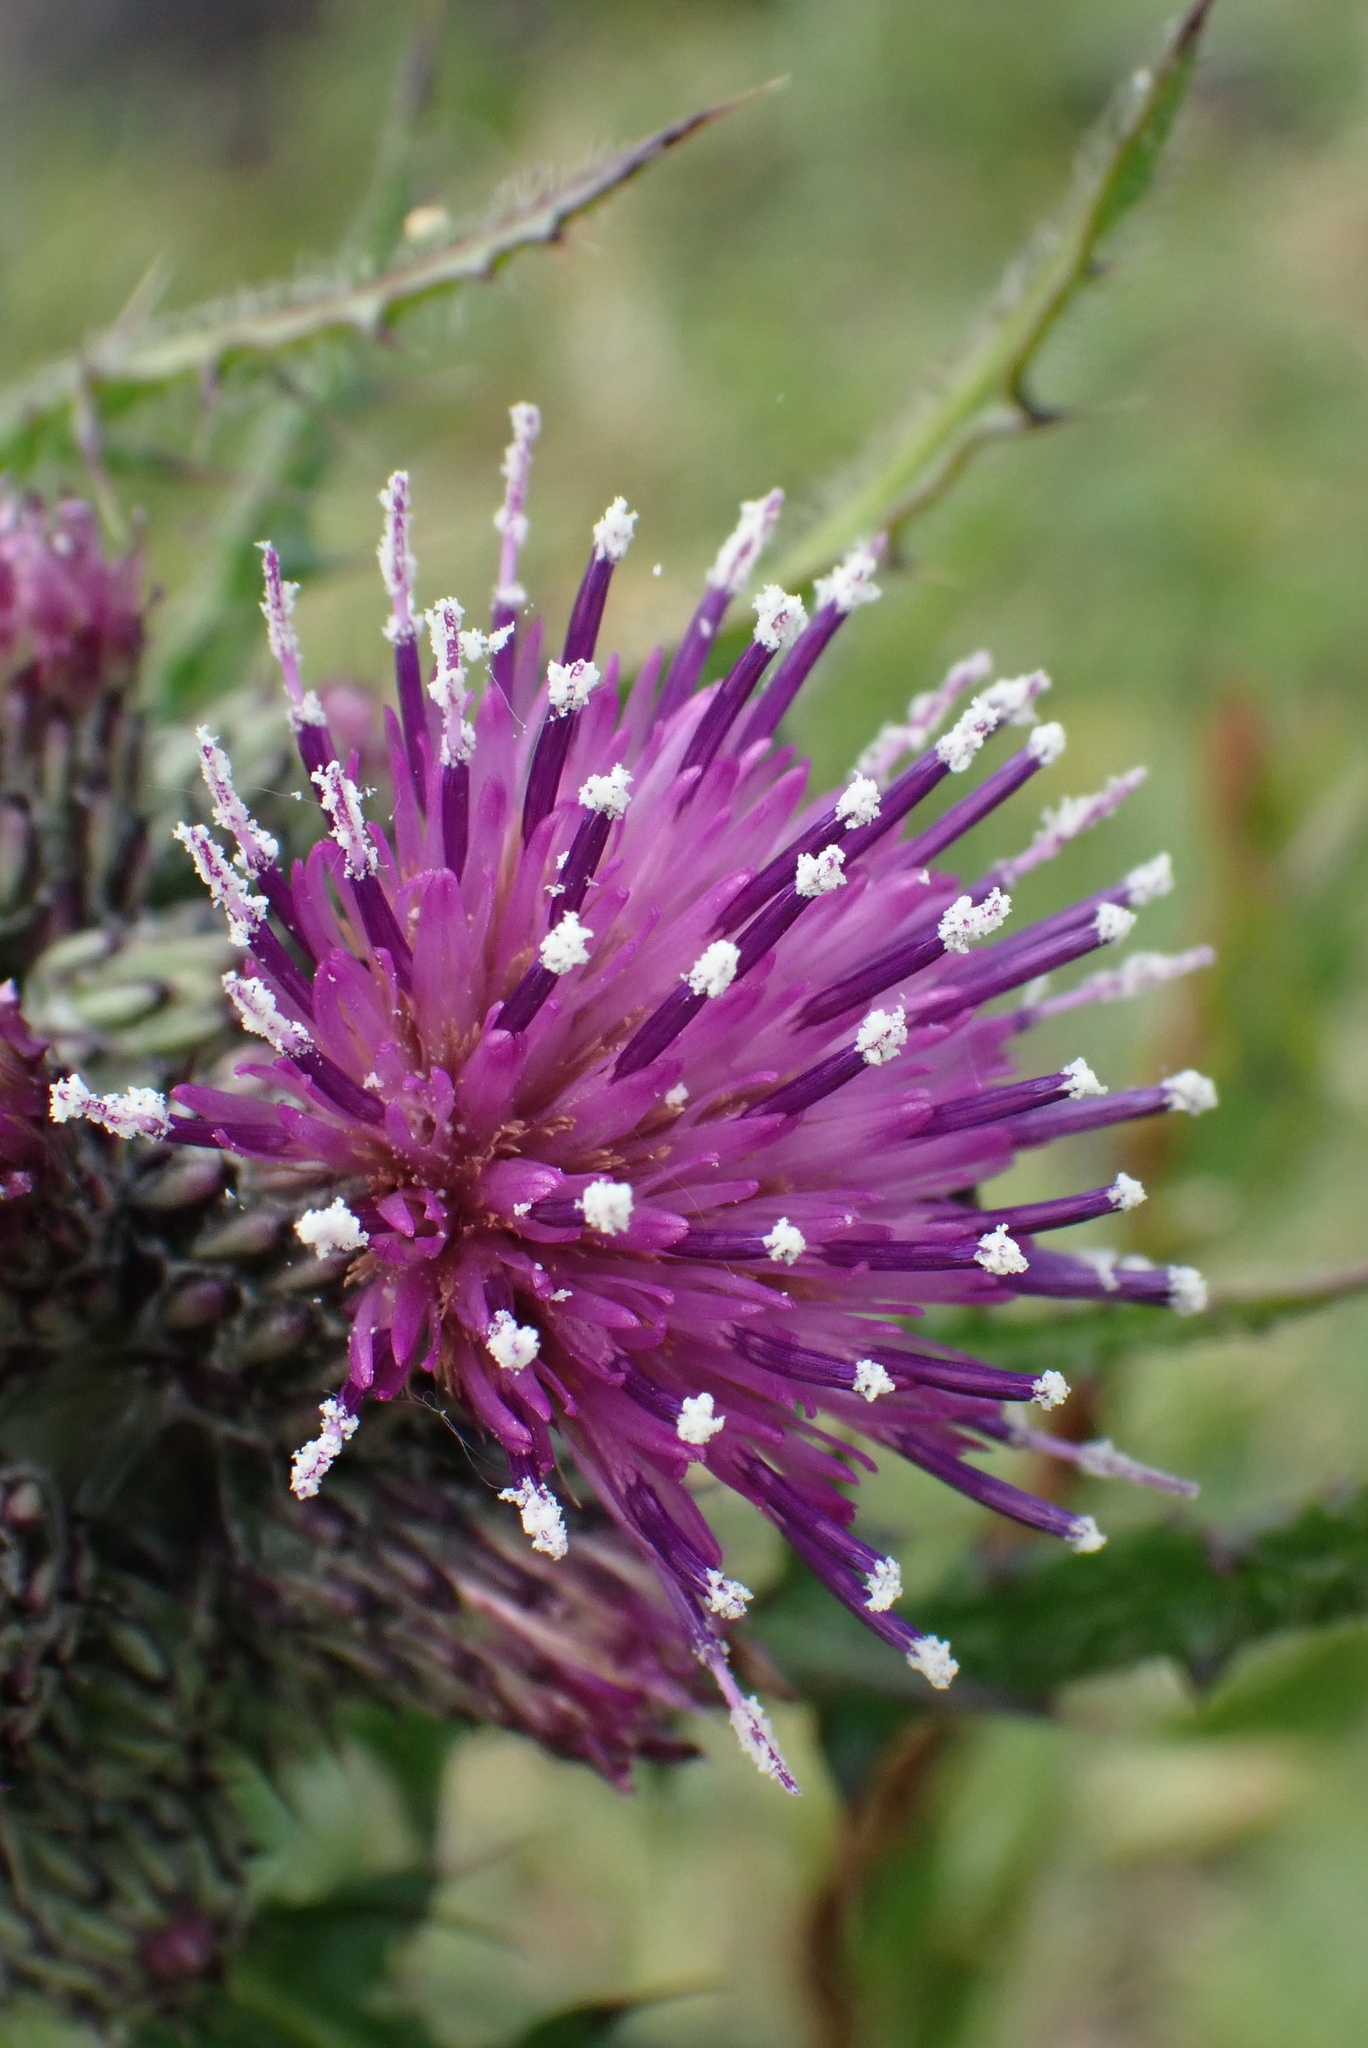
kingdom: Plantae
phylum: Tracheophyta
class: Magnoliopsida
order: Asterales
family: Asteraceae
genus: Cirsium
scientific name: Cirsium palustre
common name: Marsh thistle
